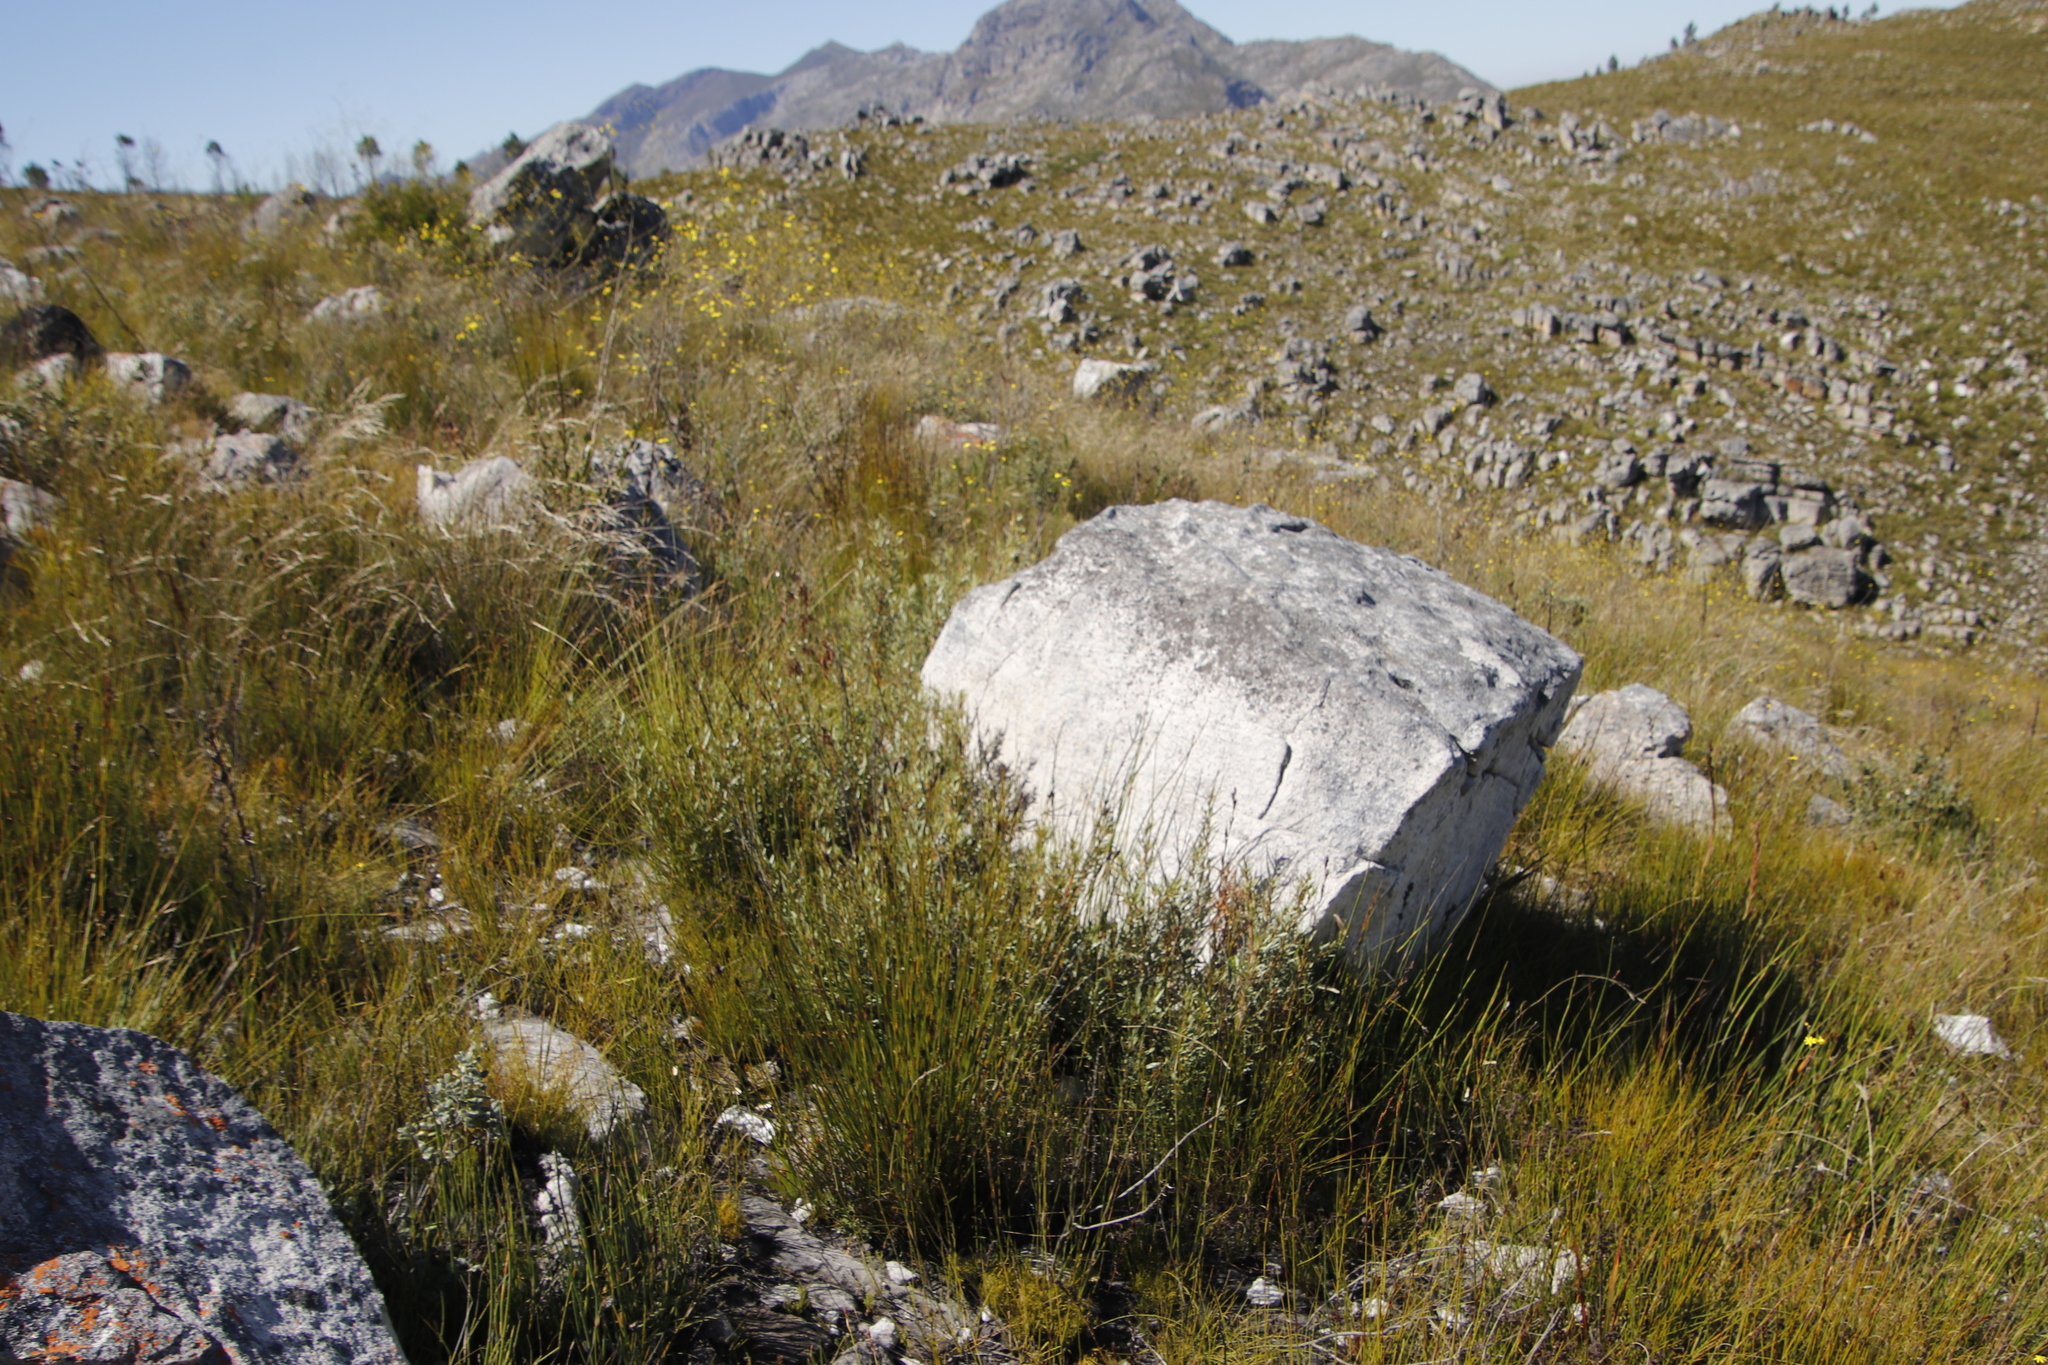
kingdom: Plantae
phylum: Tracheophyta
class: Magnoliopsida
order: Cornales
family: Grubbiaceae
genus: Grubbia
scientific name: Grubbia tomentosa
